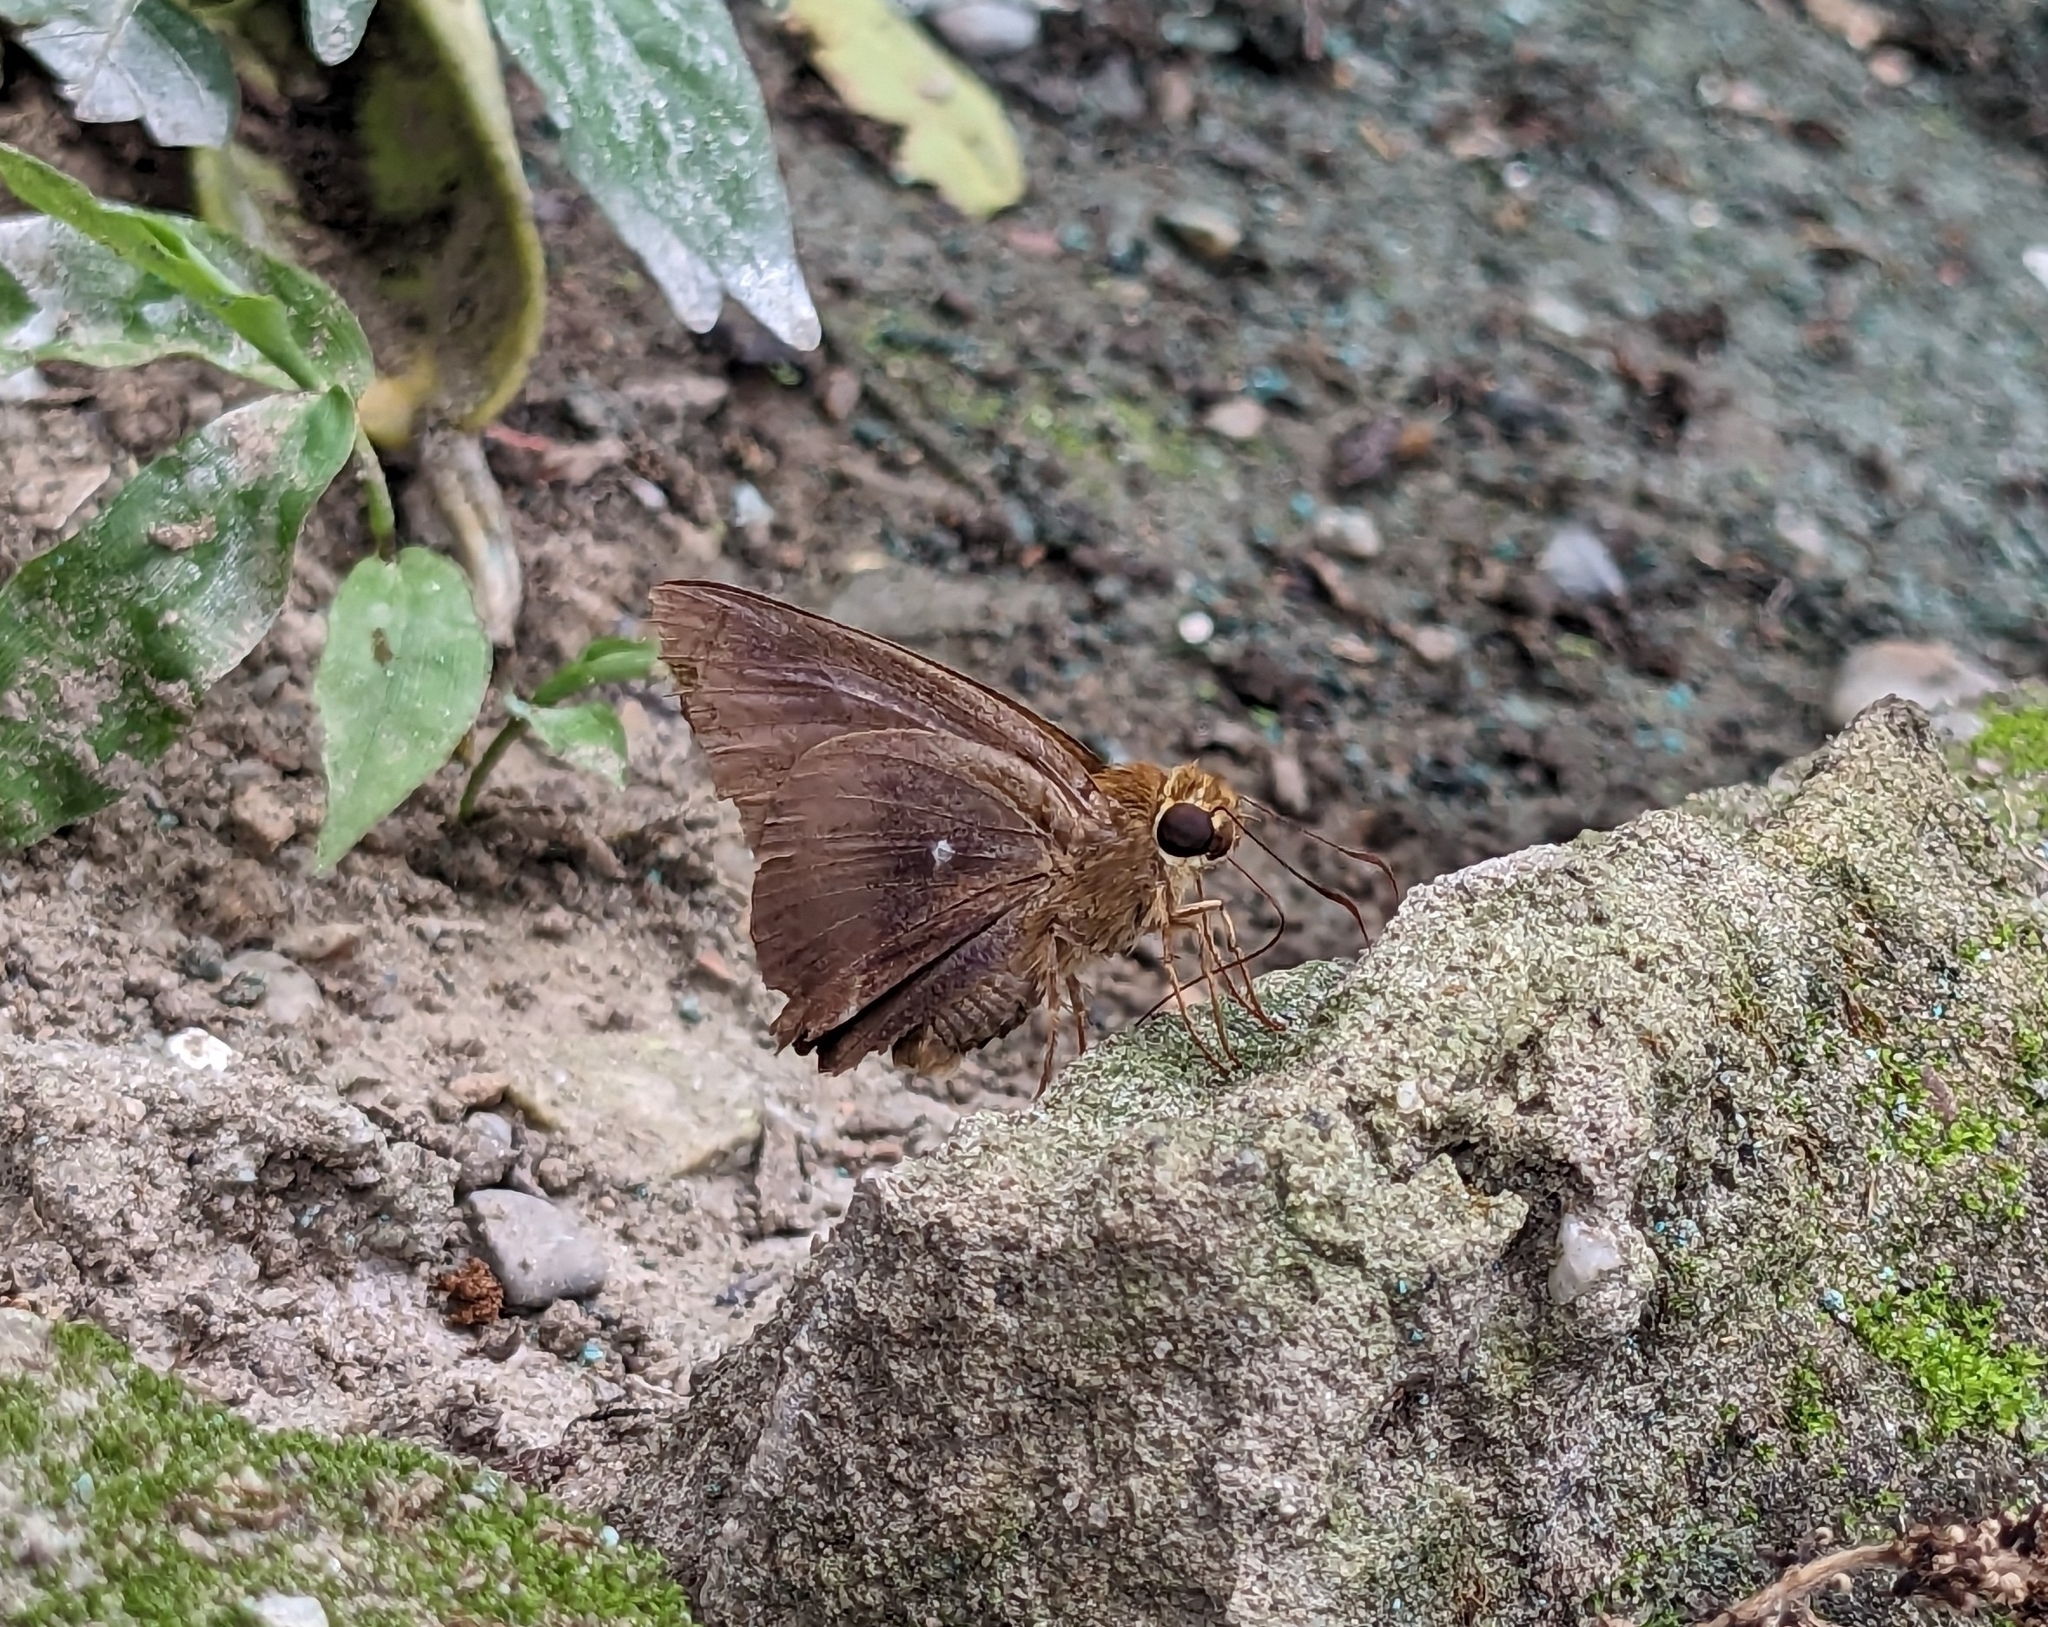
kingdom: Animalia
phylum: Arthropoda
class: Insecta
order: Lepidoptera
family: Hesperiidae
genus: Hasora
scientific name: Hasora anura
